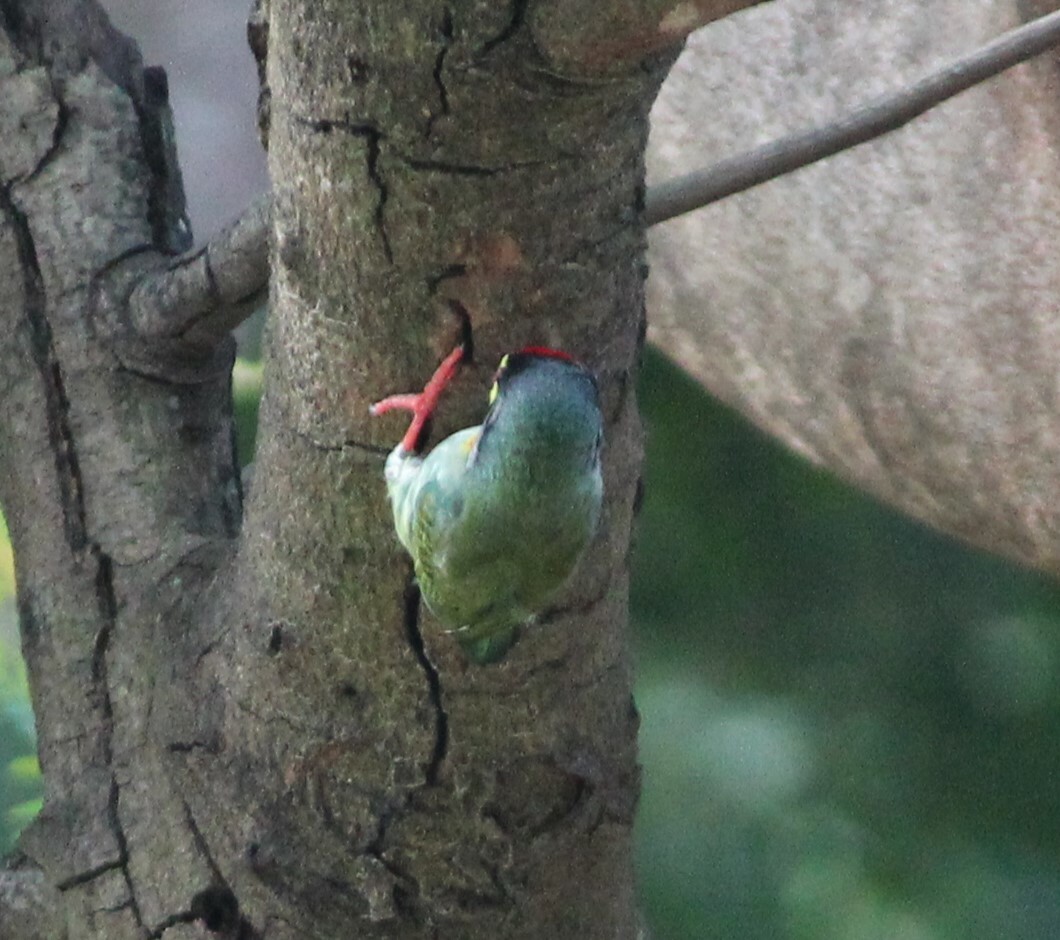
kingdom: Animalia
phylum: Chordata
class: Aves
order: Piciformes
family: Megalaimidae
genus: Psilopogon
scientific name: Psilopogon haemacephalus
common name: Coppersmith barbet
